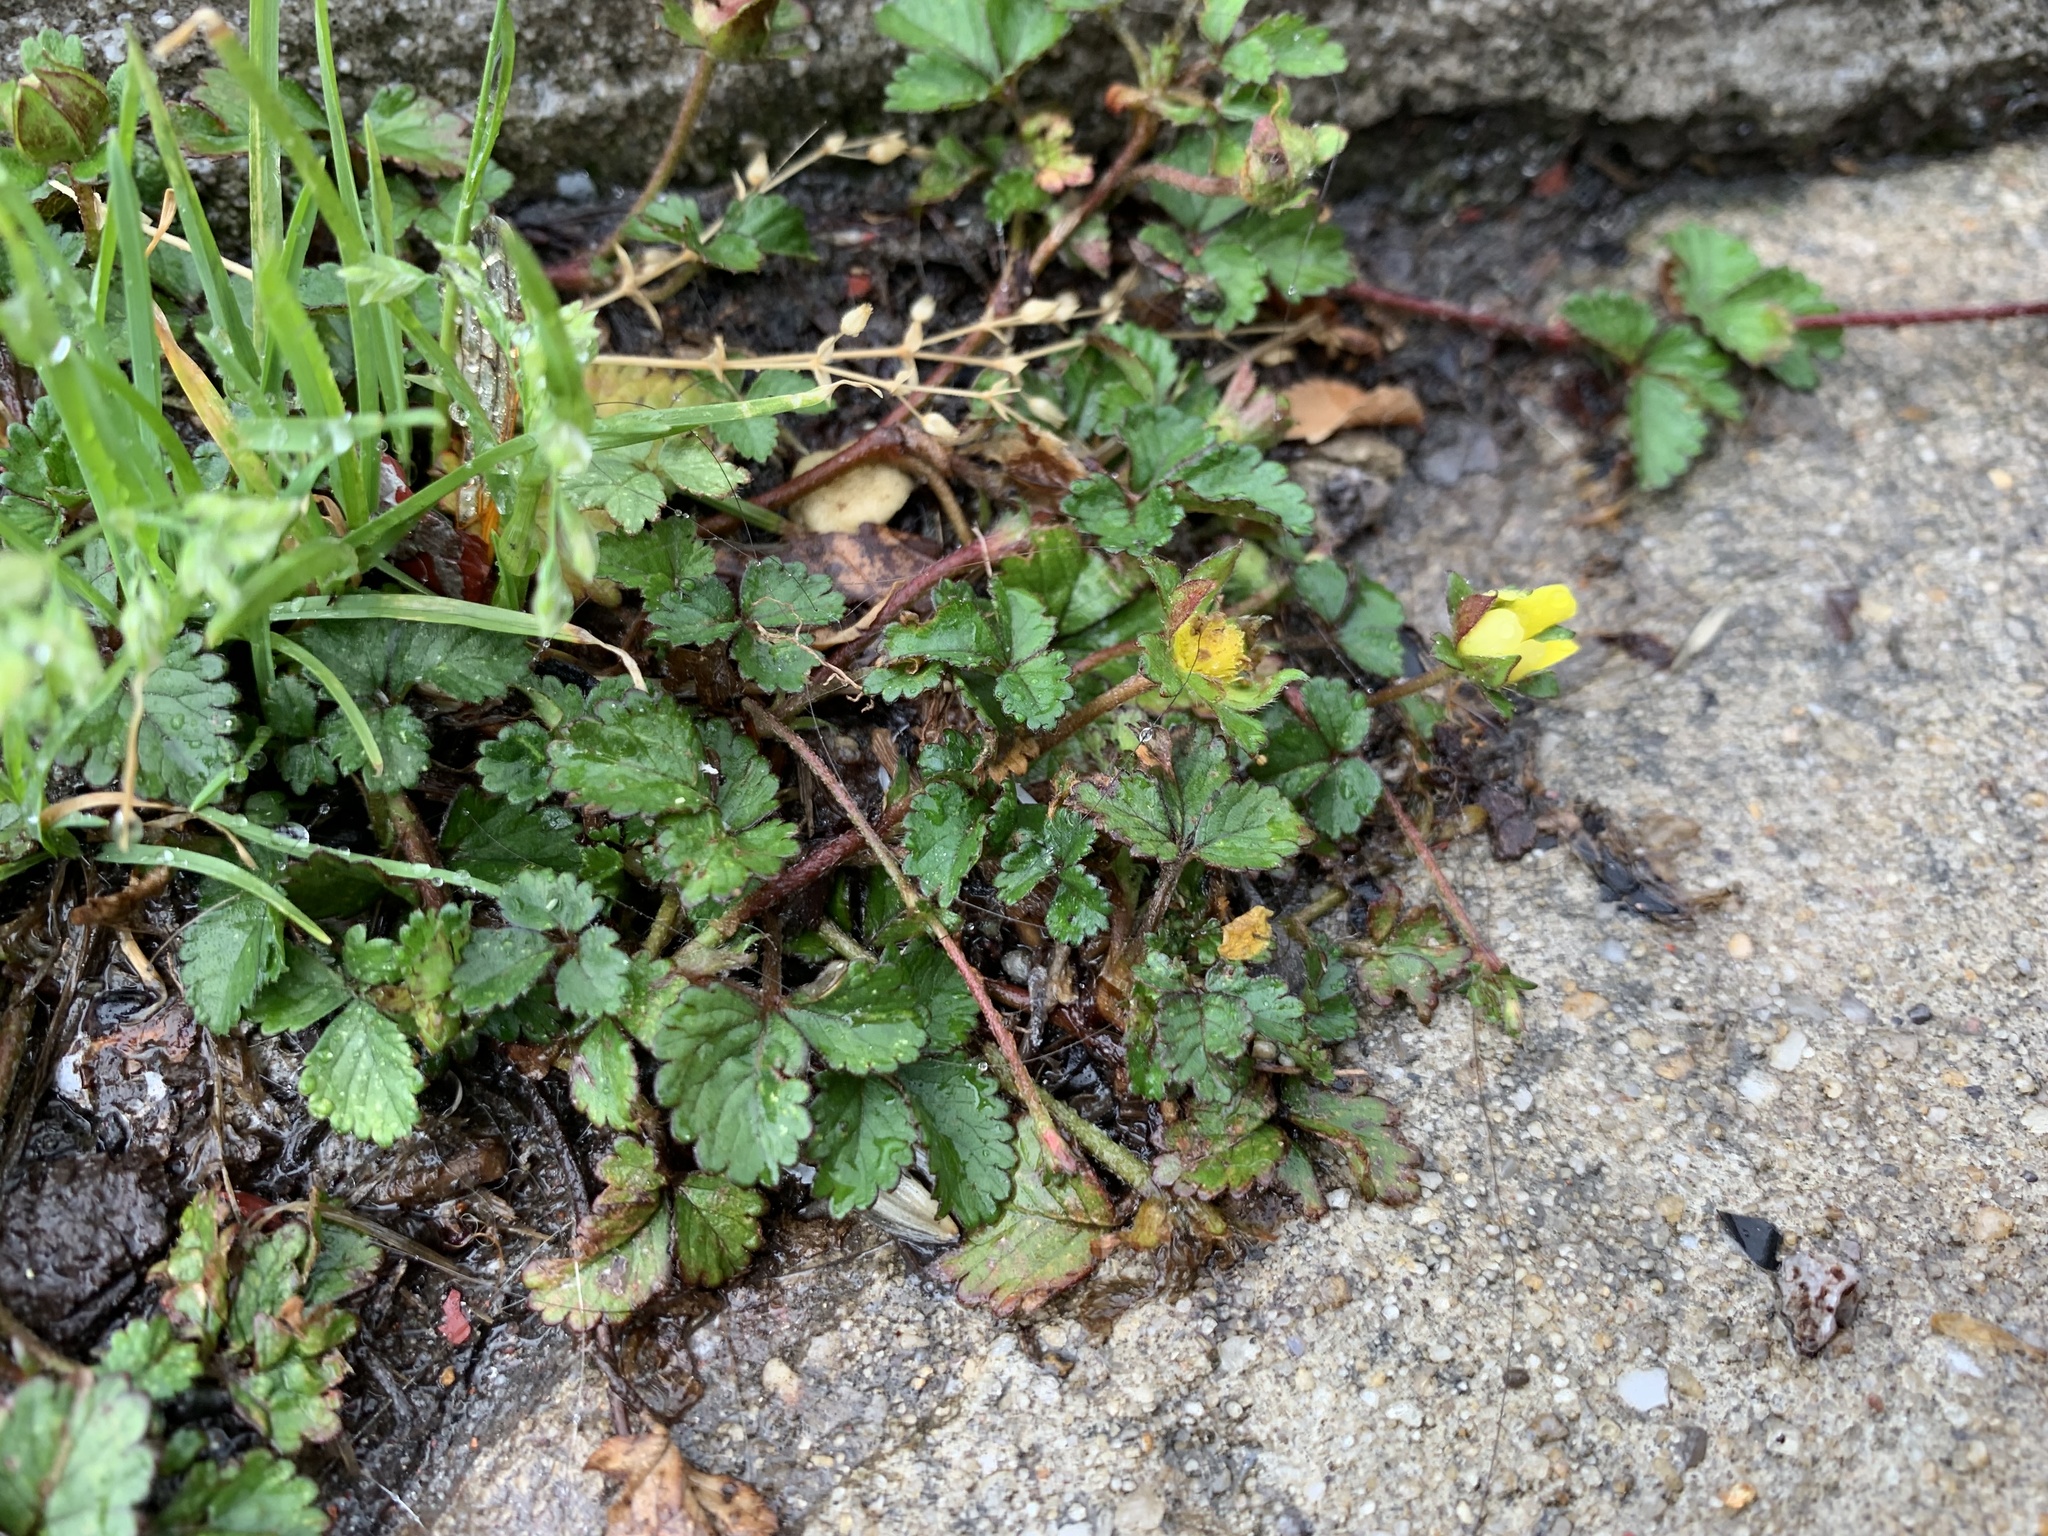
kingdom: Plantae
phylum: Tracheophyta
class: Magnoliopsida
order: Rosales
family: Rosaceae
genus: Potentilla
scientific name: Potentilla indica
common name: Yellow-flowered strawberry
